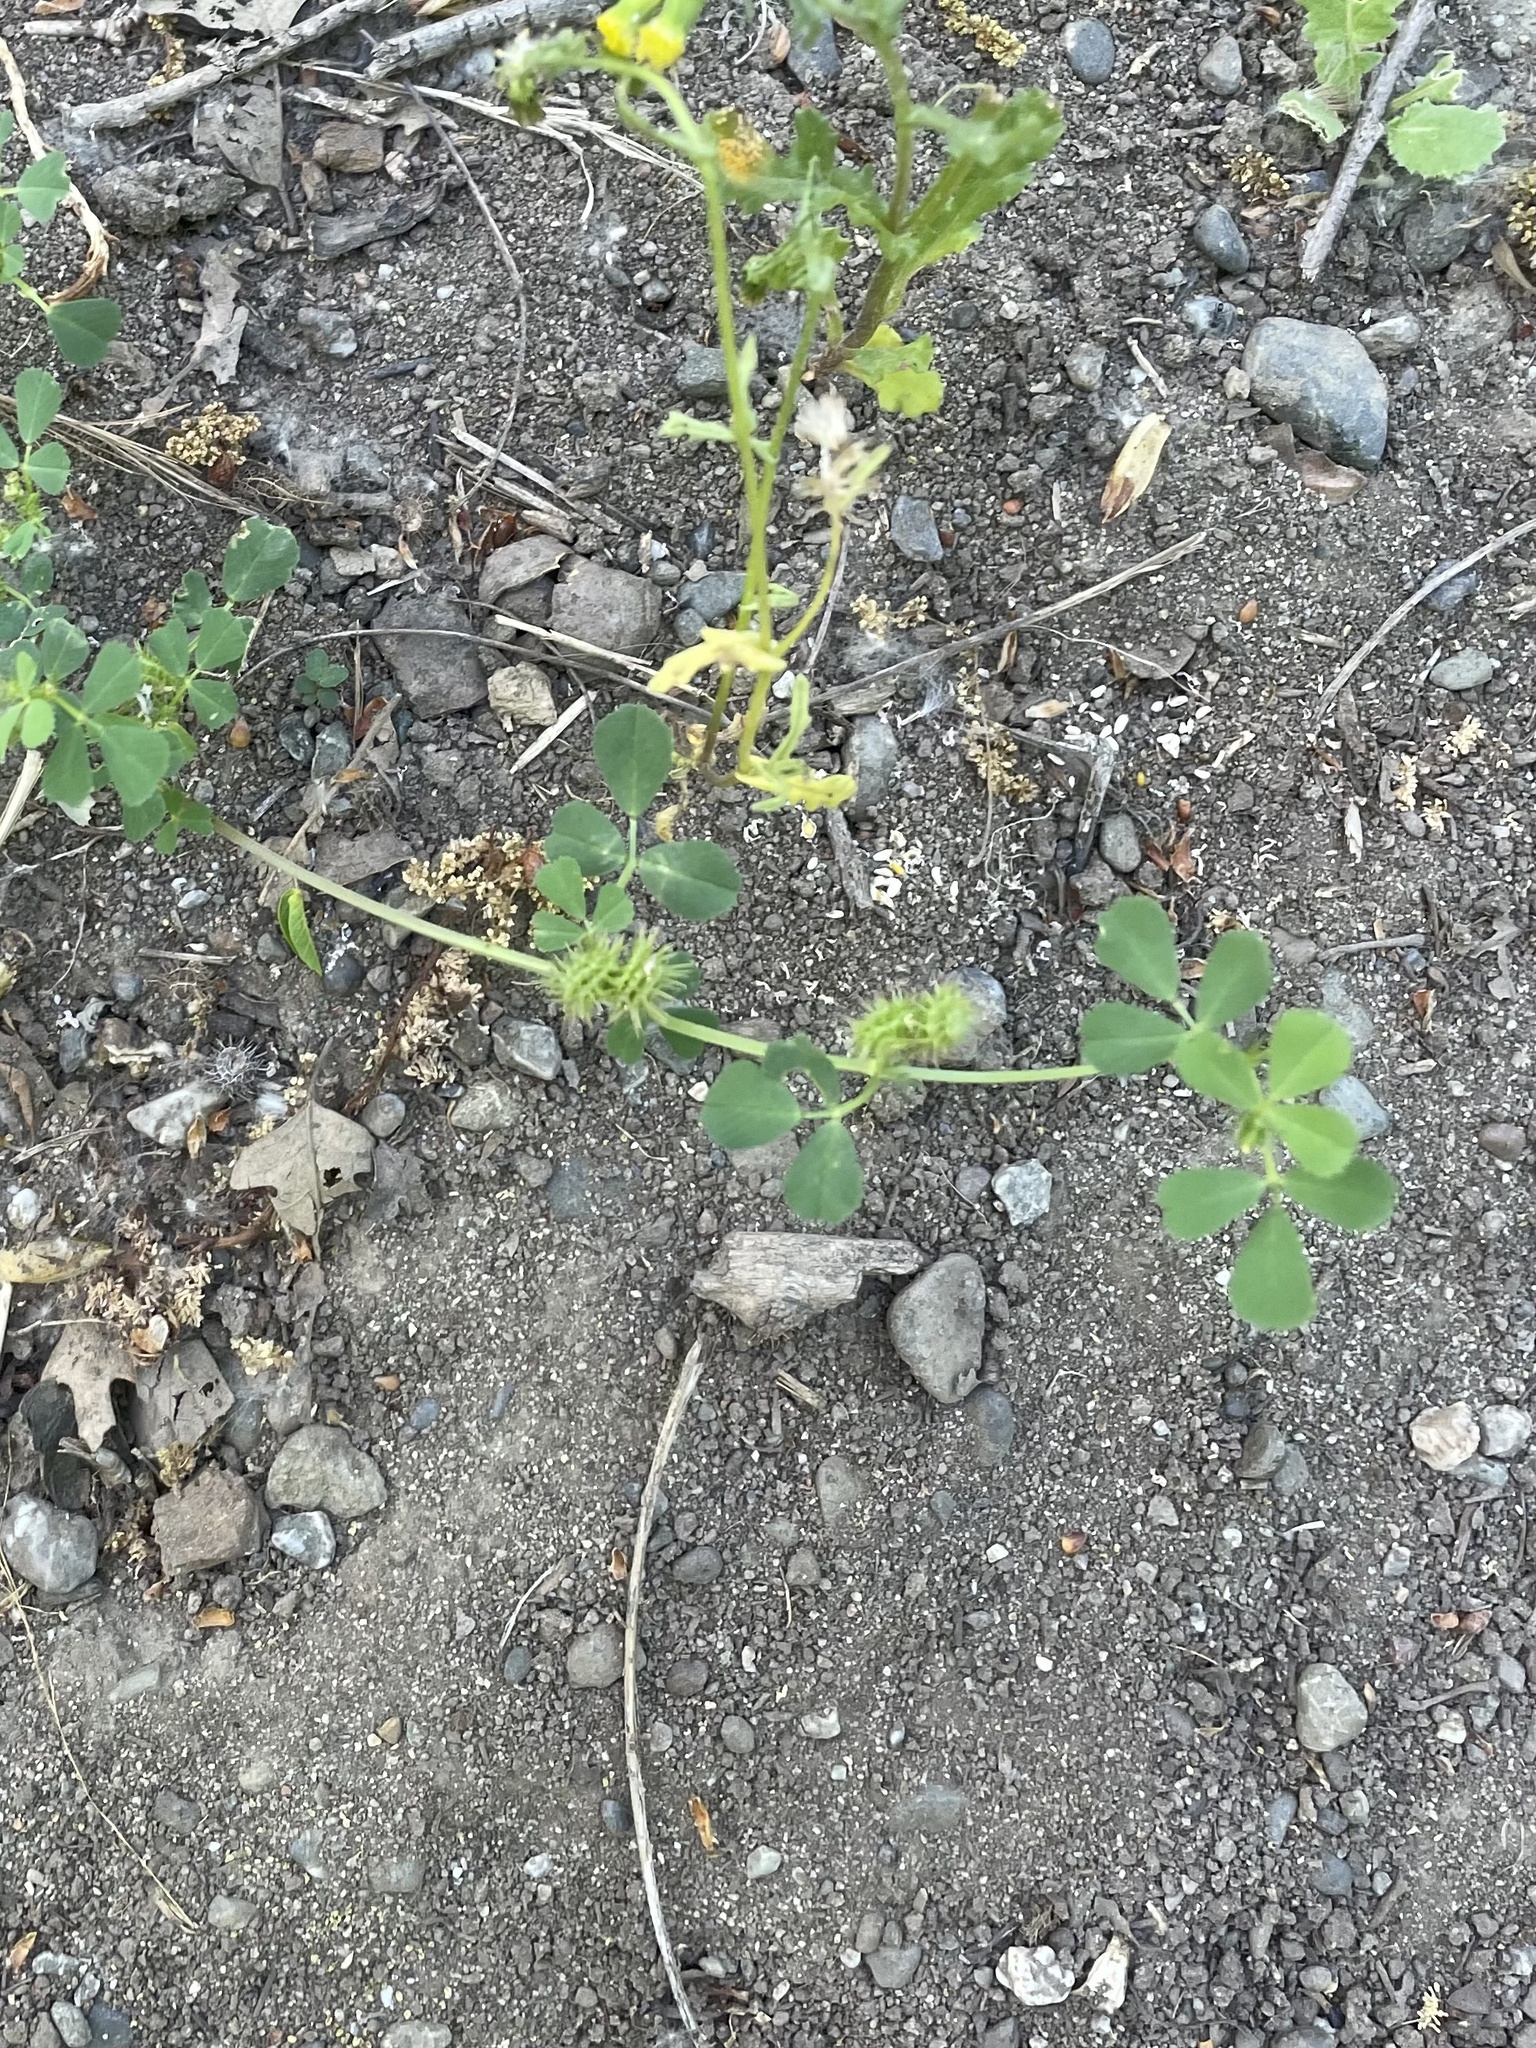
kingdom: Plantae
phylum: Tracheophyta
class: Magnoliopsida
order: Fabales
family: Fabaceae
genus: Medicago
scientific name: Medicago polymorpha
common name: Burclover
